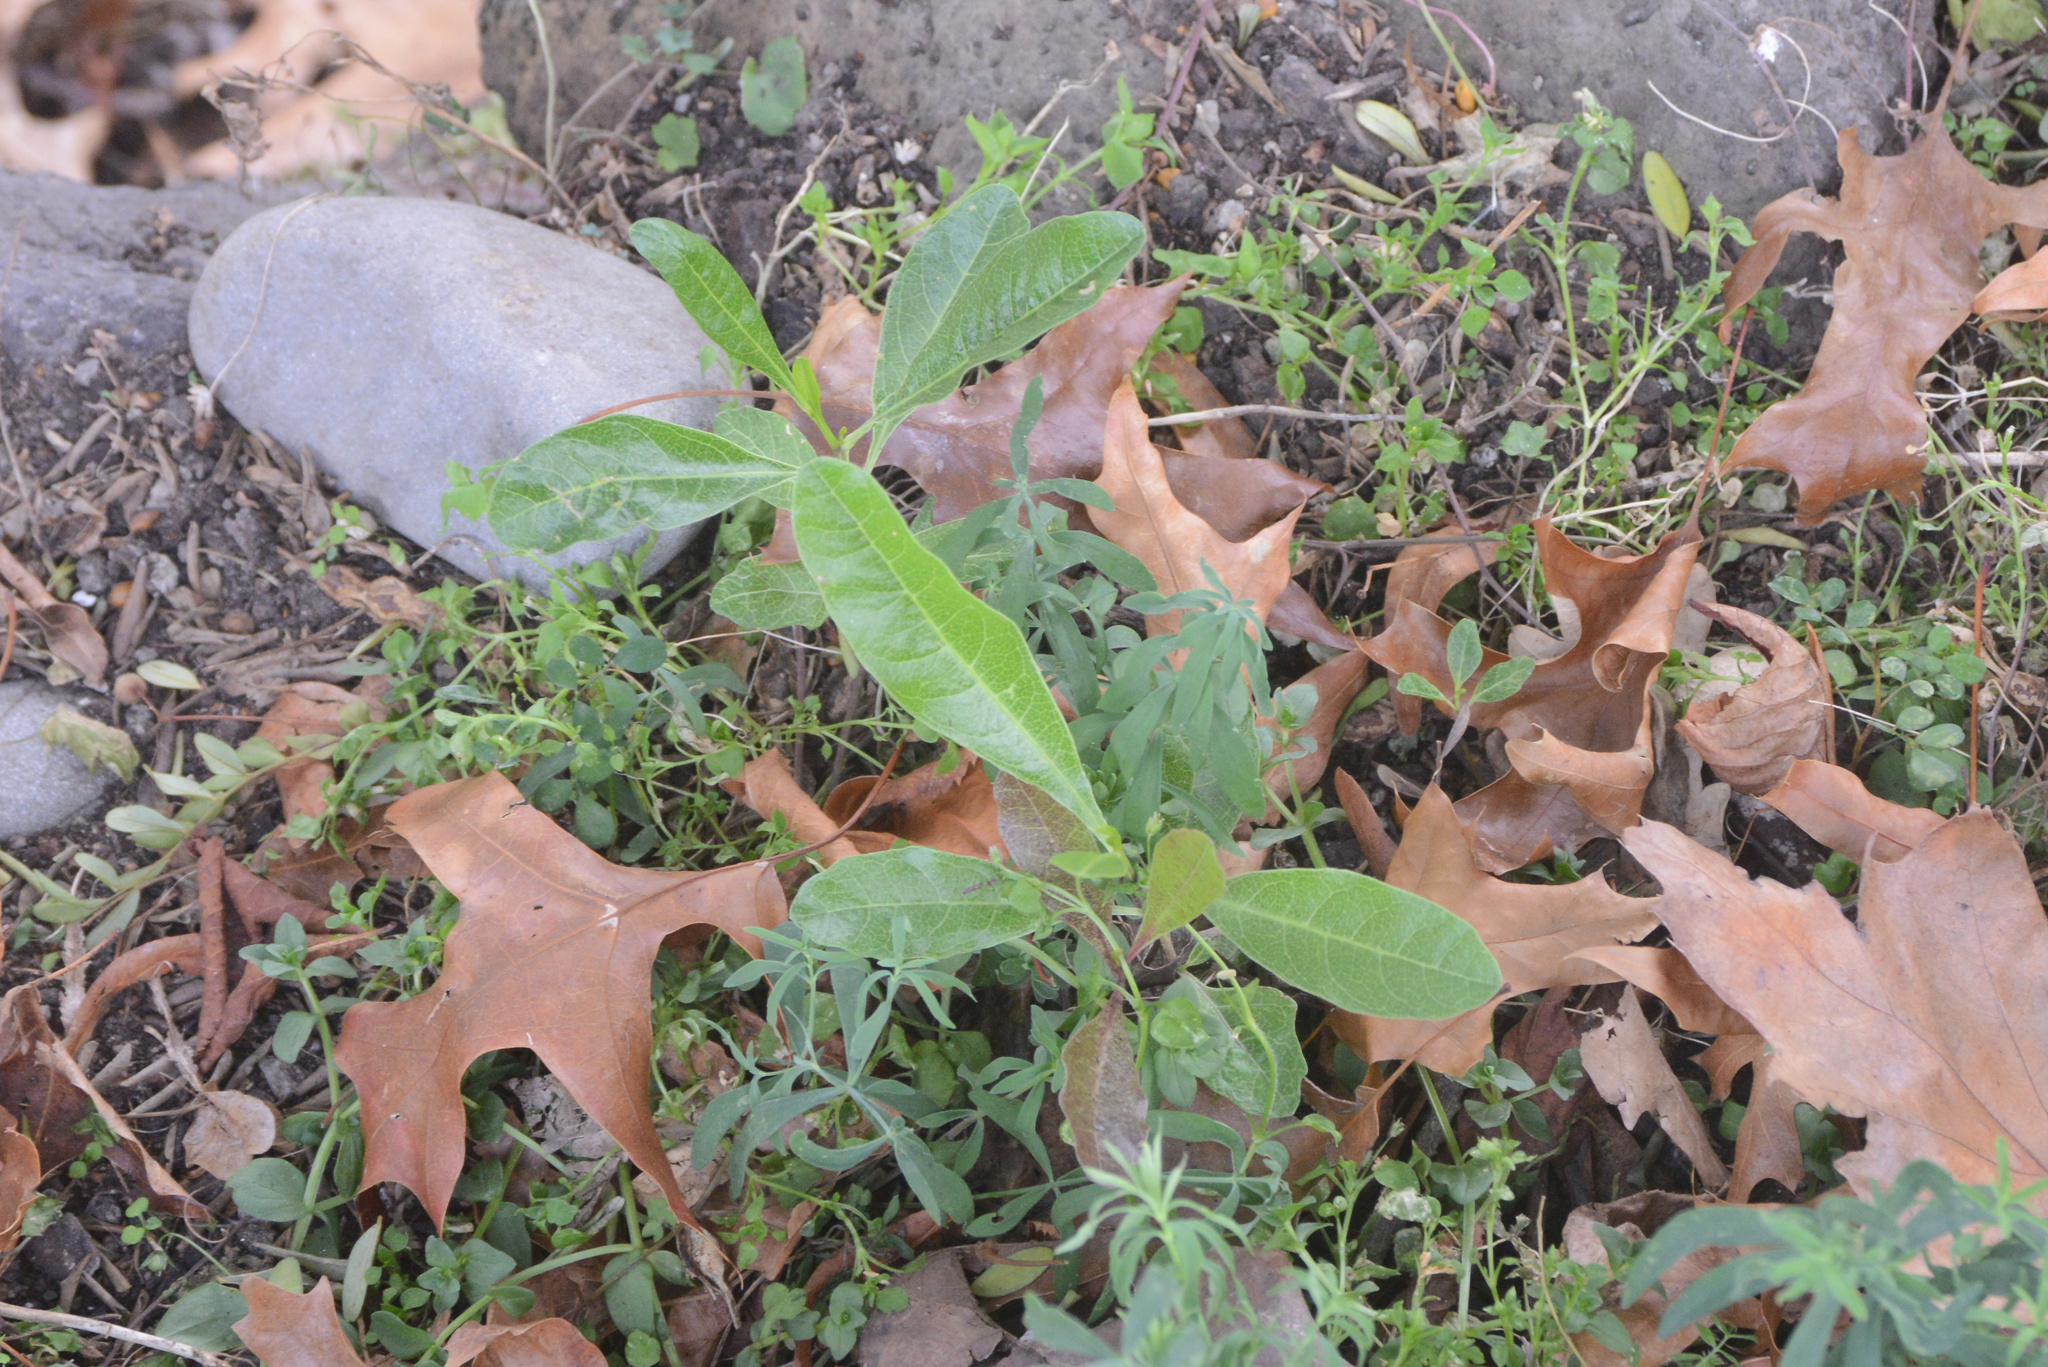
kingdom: Plantae
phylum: Tracheophyta
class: Magnoliopsida
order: Sapindales
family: Sapindaceae
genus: Dodonaea
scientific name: Dodonaea viscosa
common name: Hopbush
